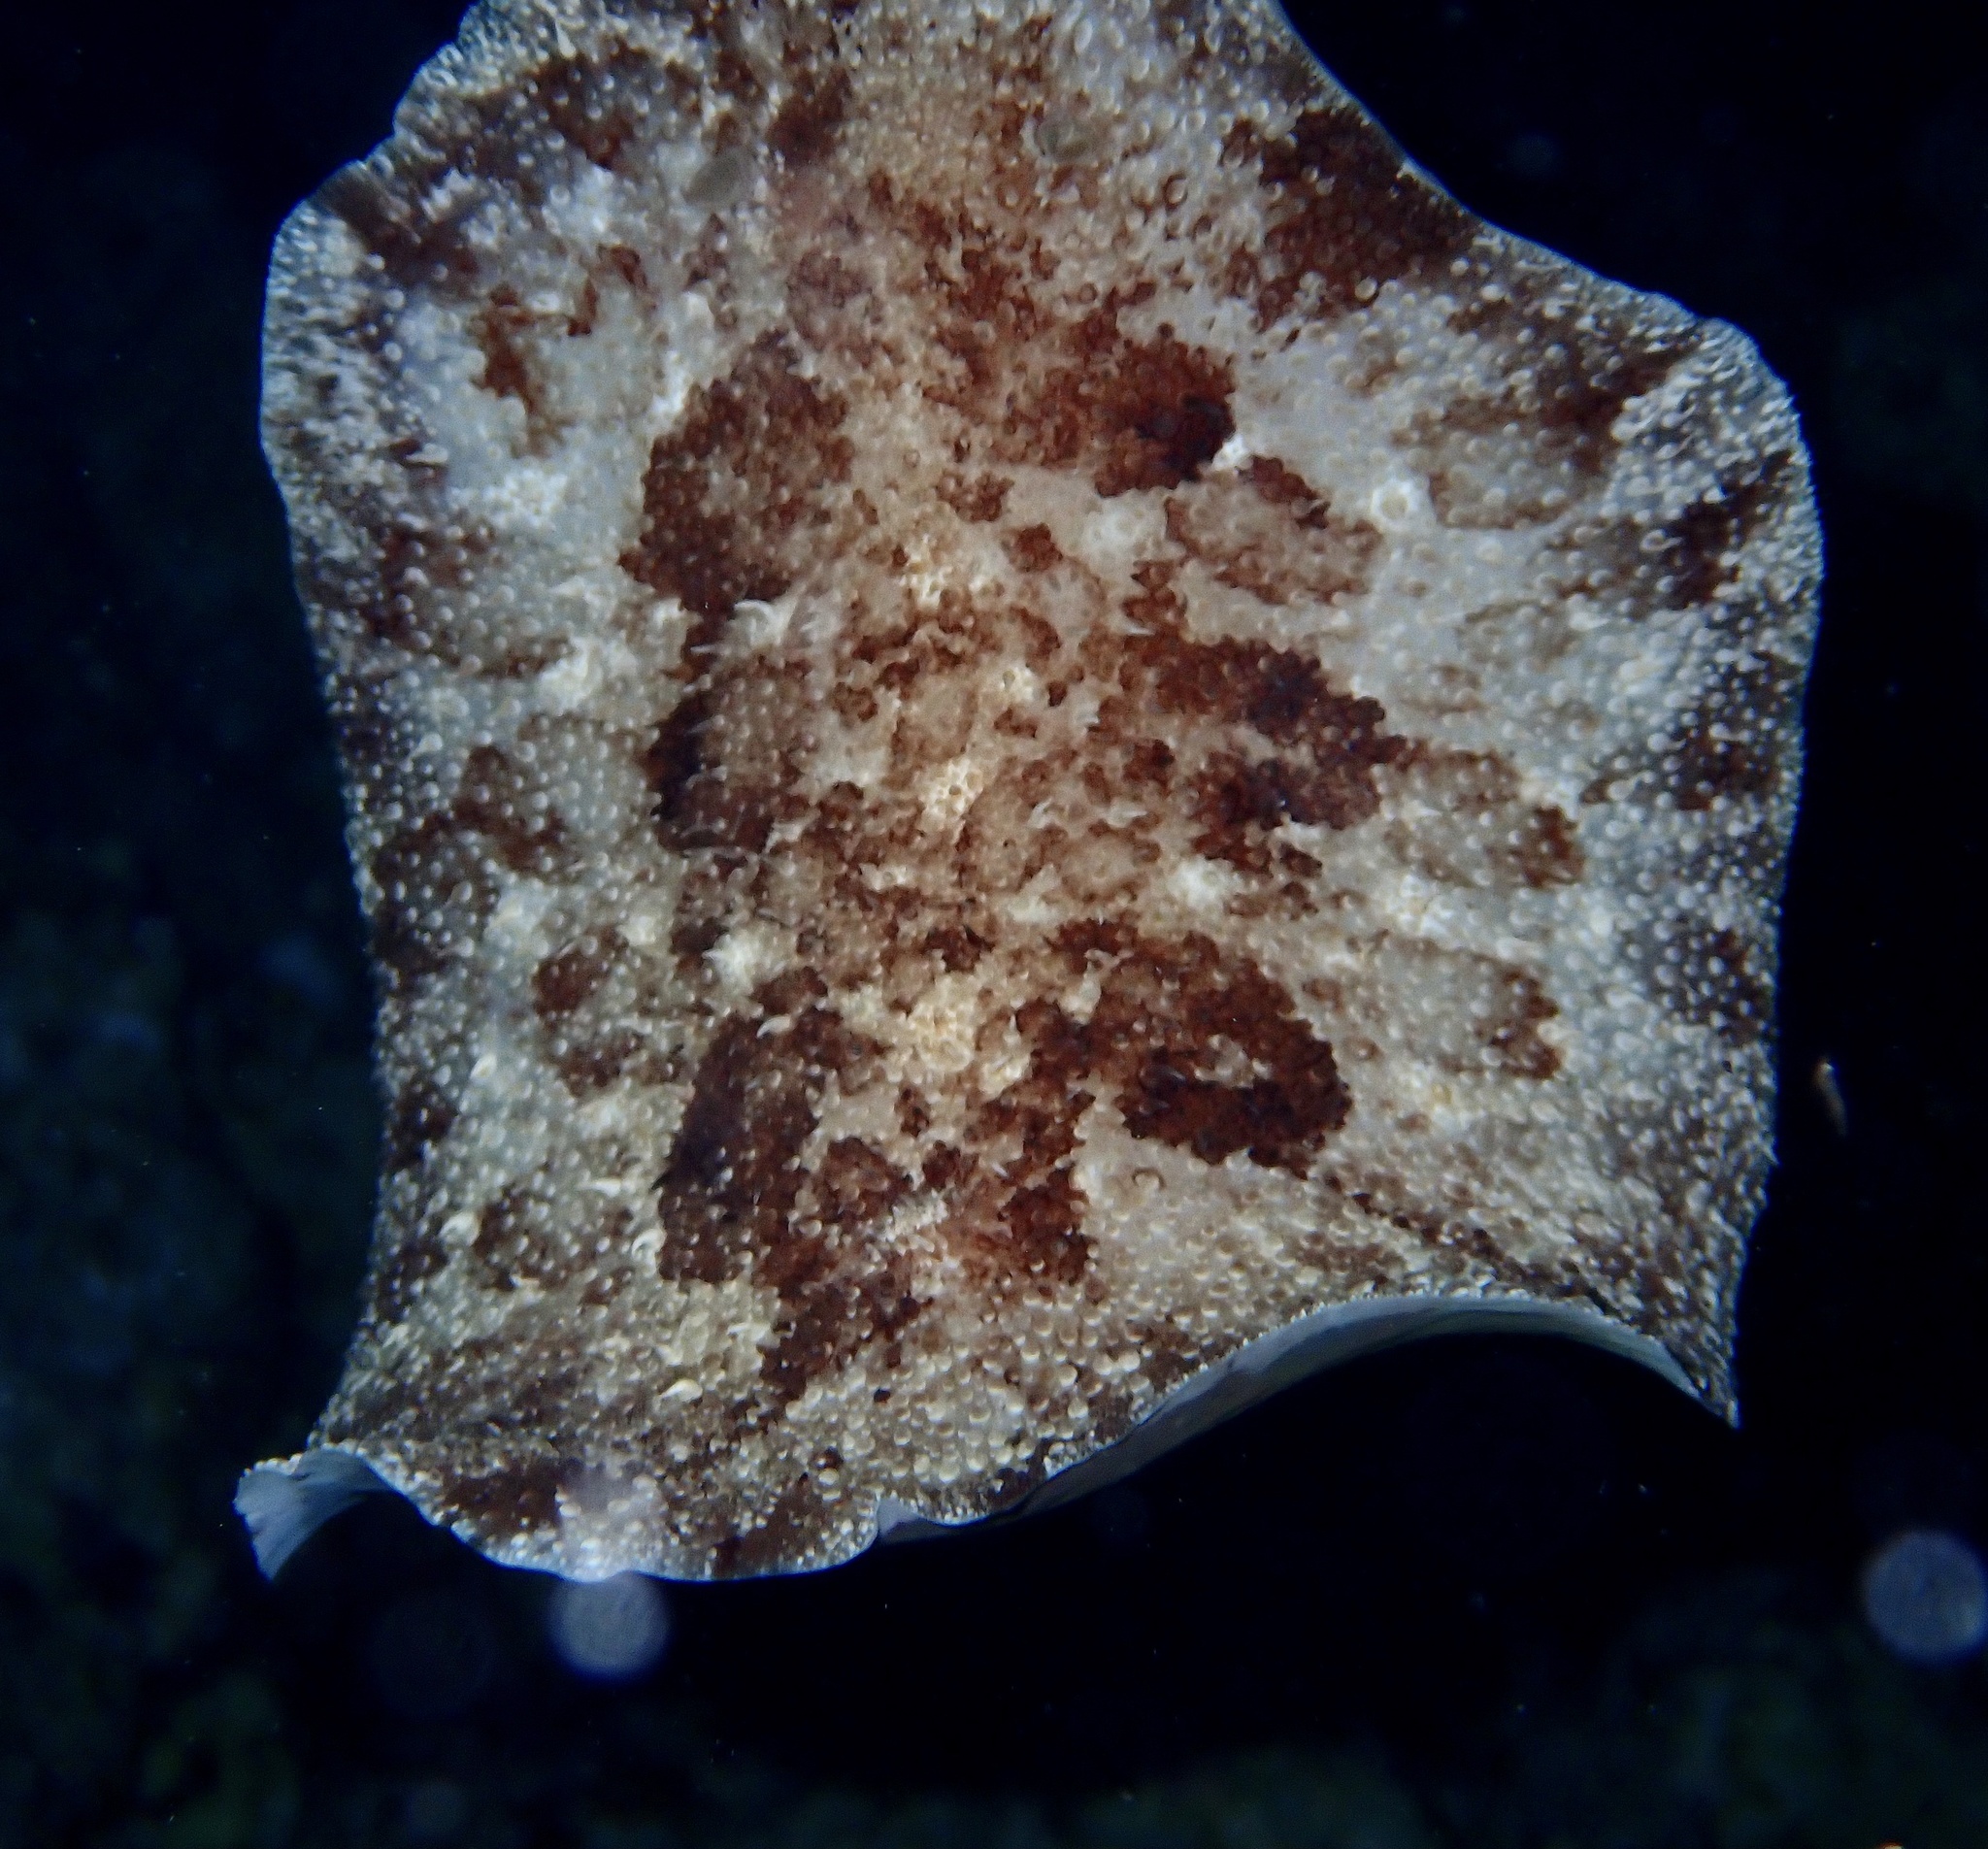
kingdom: Animalia
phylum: Mollusca
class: Gastropoda
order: Nudibranchia
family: Discodorididae
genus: Sebadoris
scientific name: Sebadoris nubilosa
